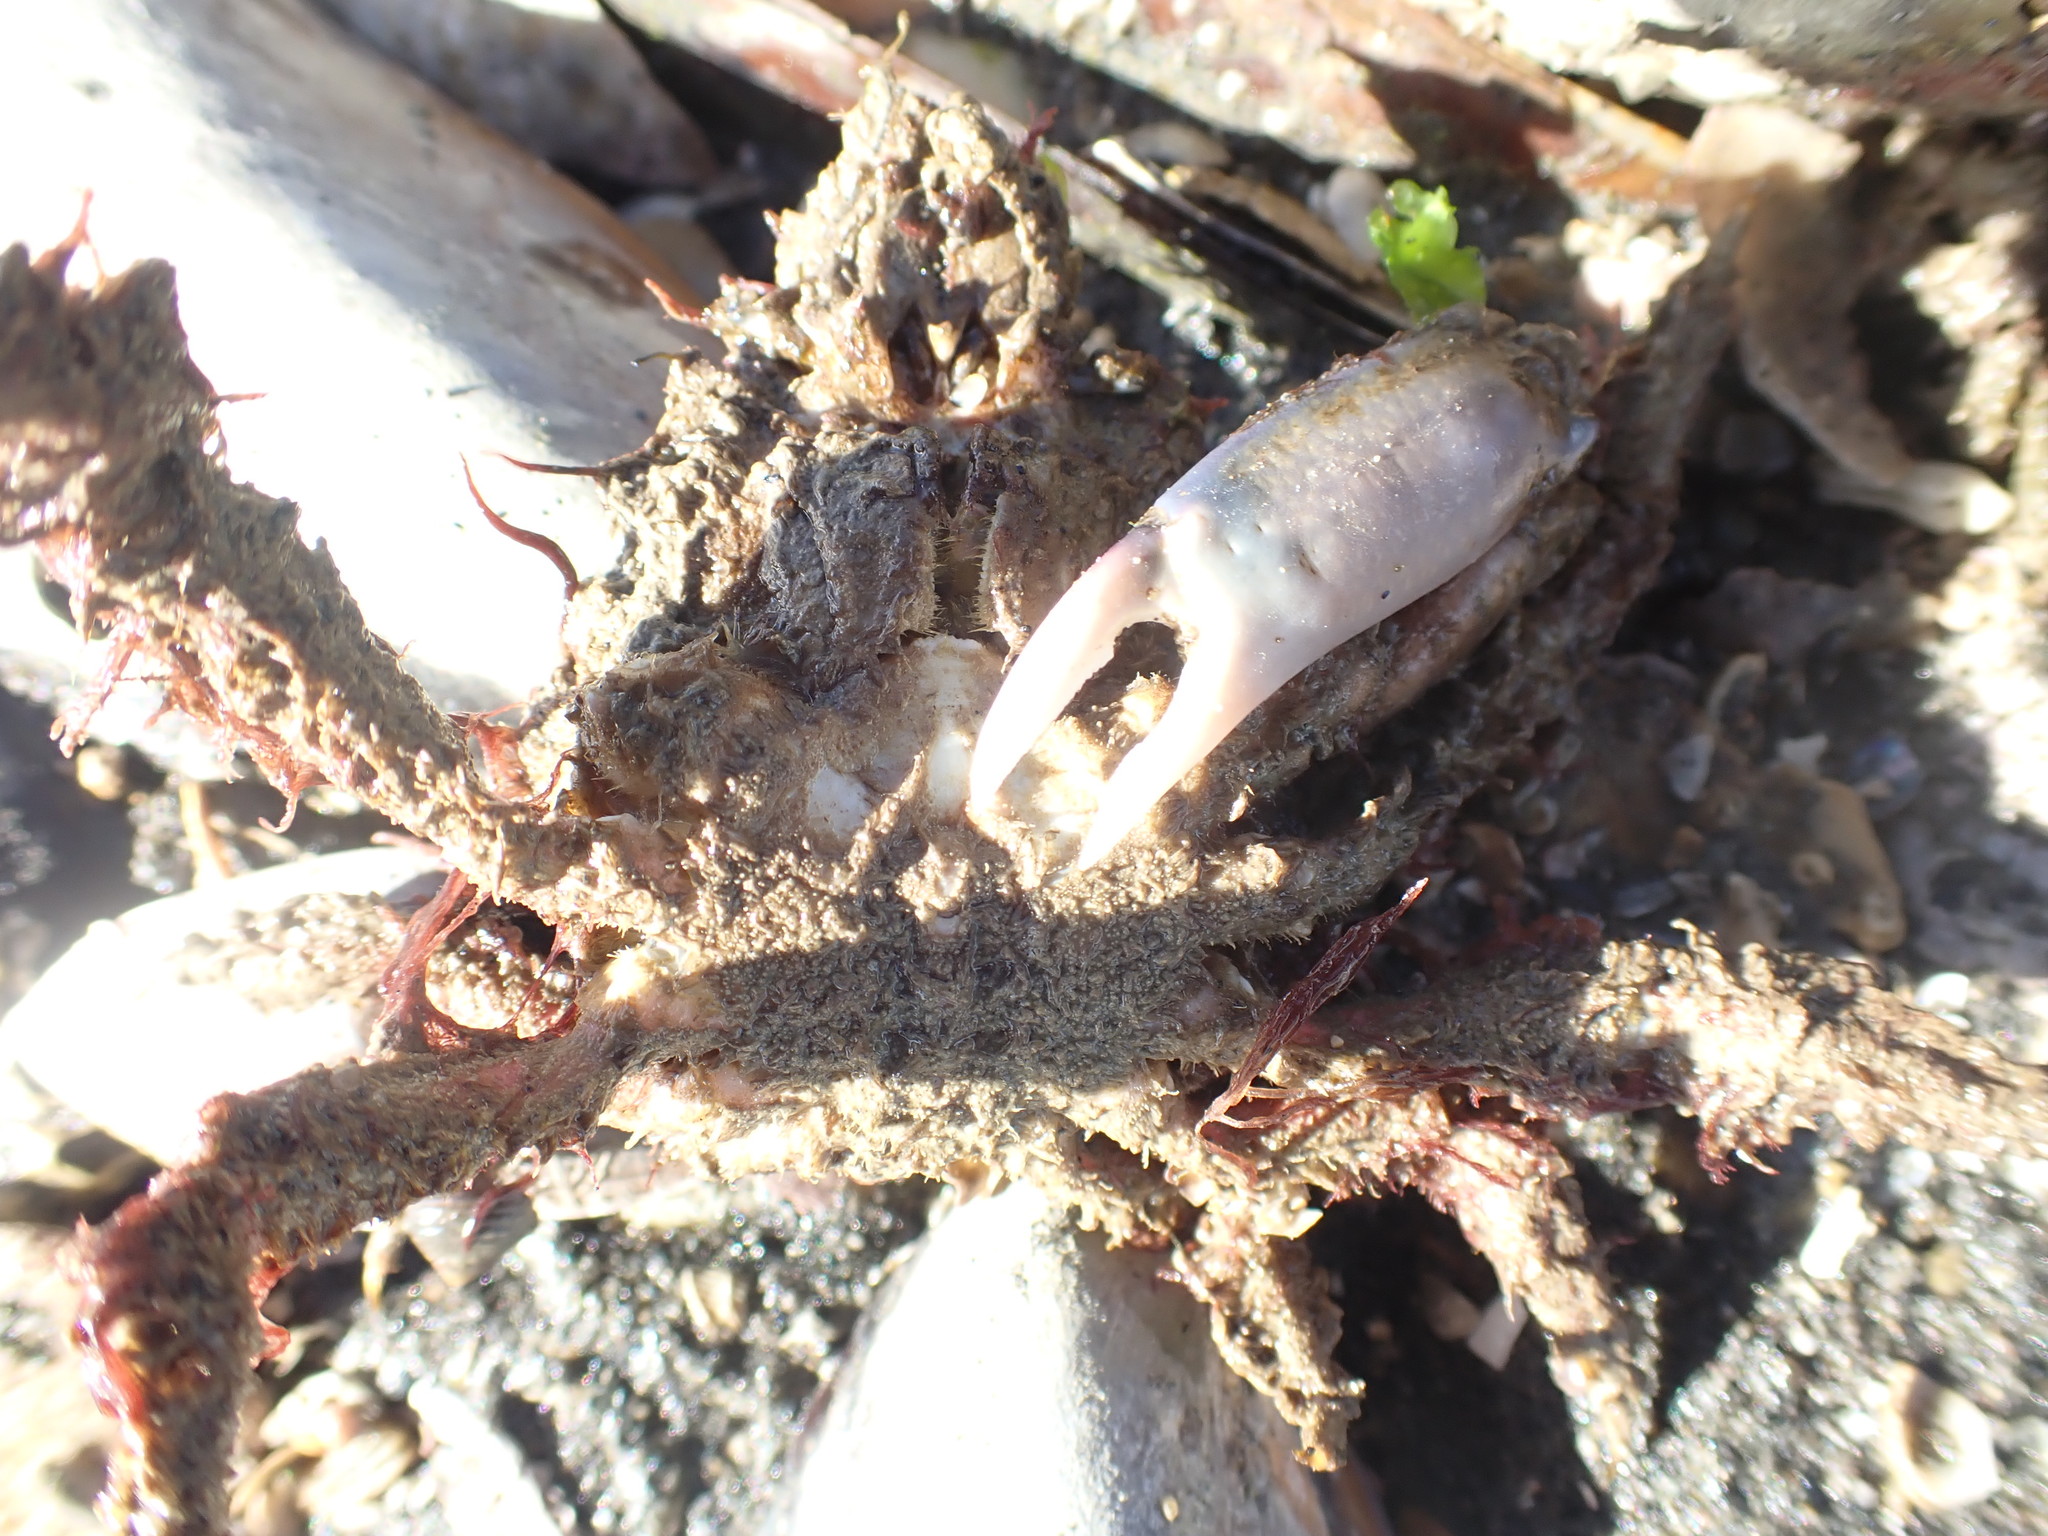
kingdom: Animalia
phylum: Arthropoda
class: Malacostraca
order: Decapoda
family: Majidae
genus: Notomithrax
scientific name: Notomithrax minor
